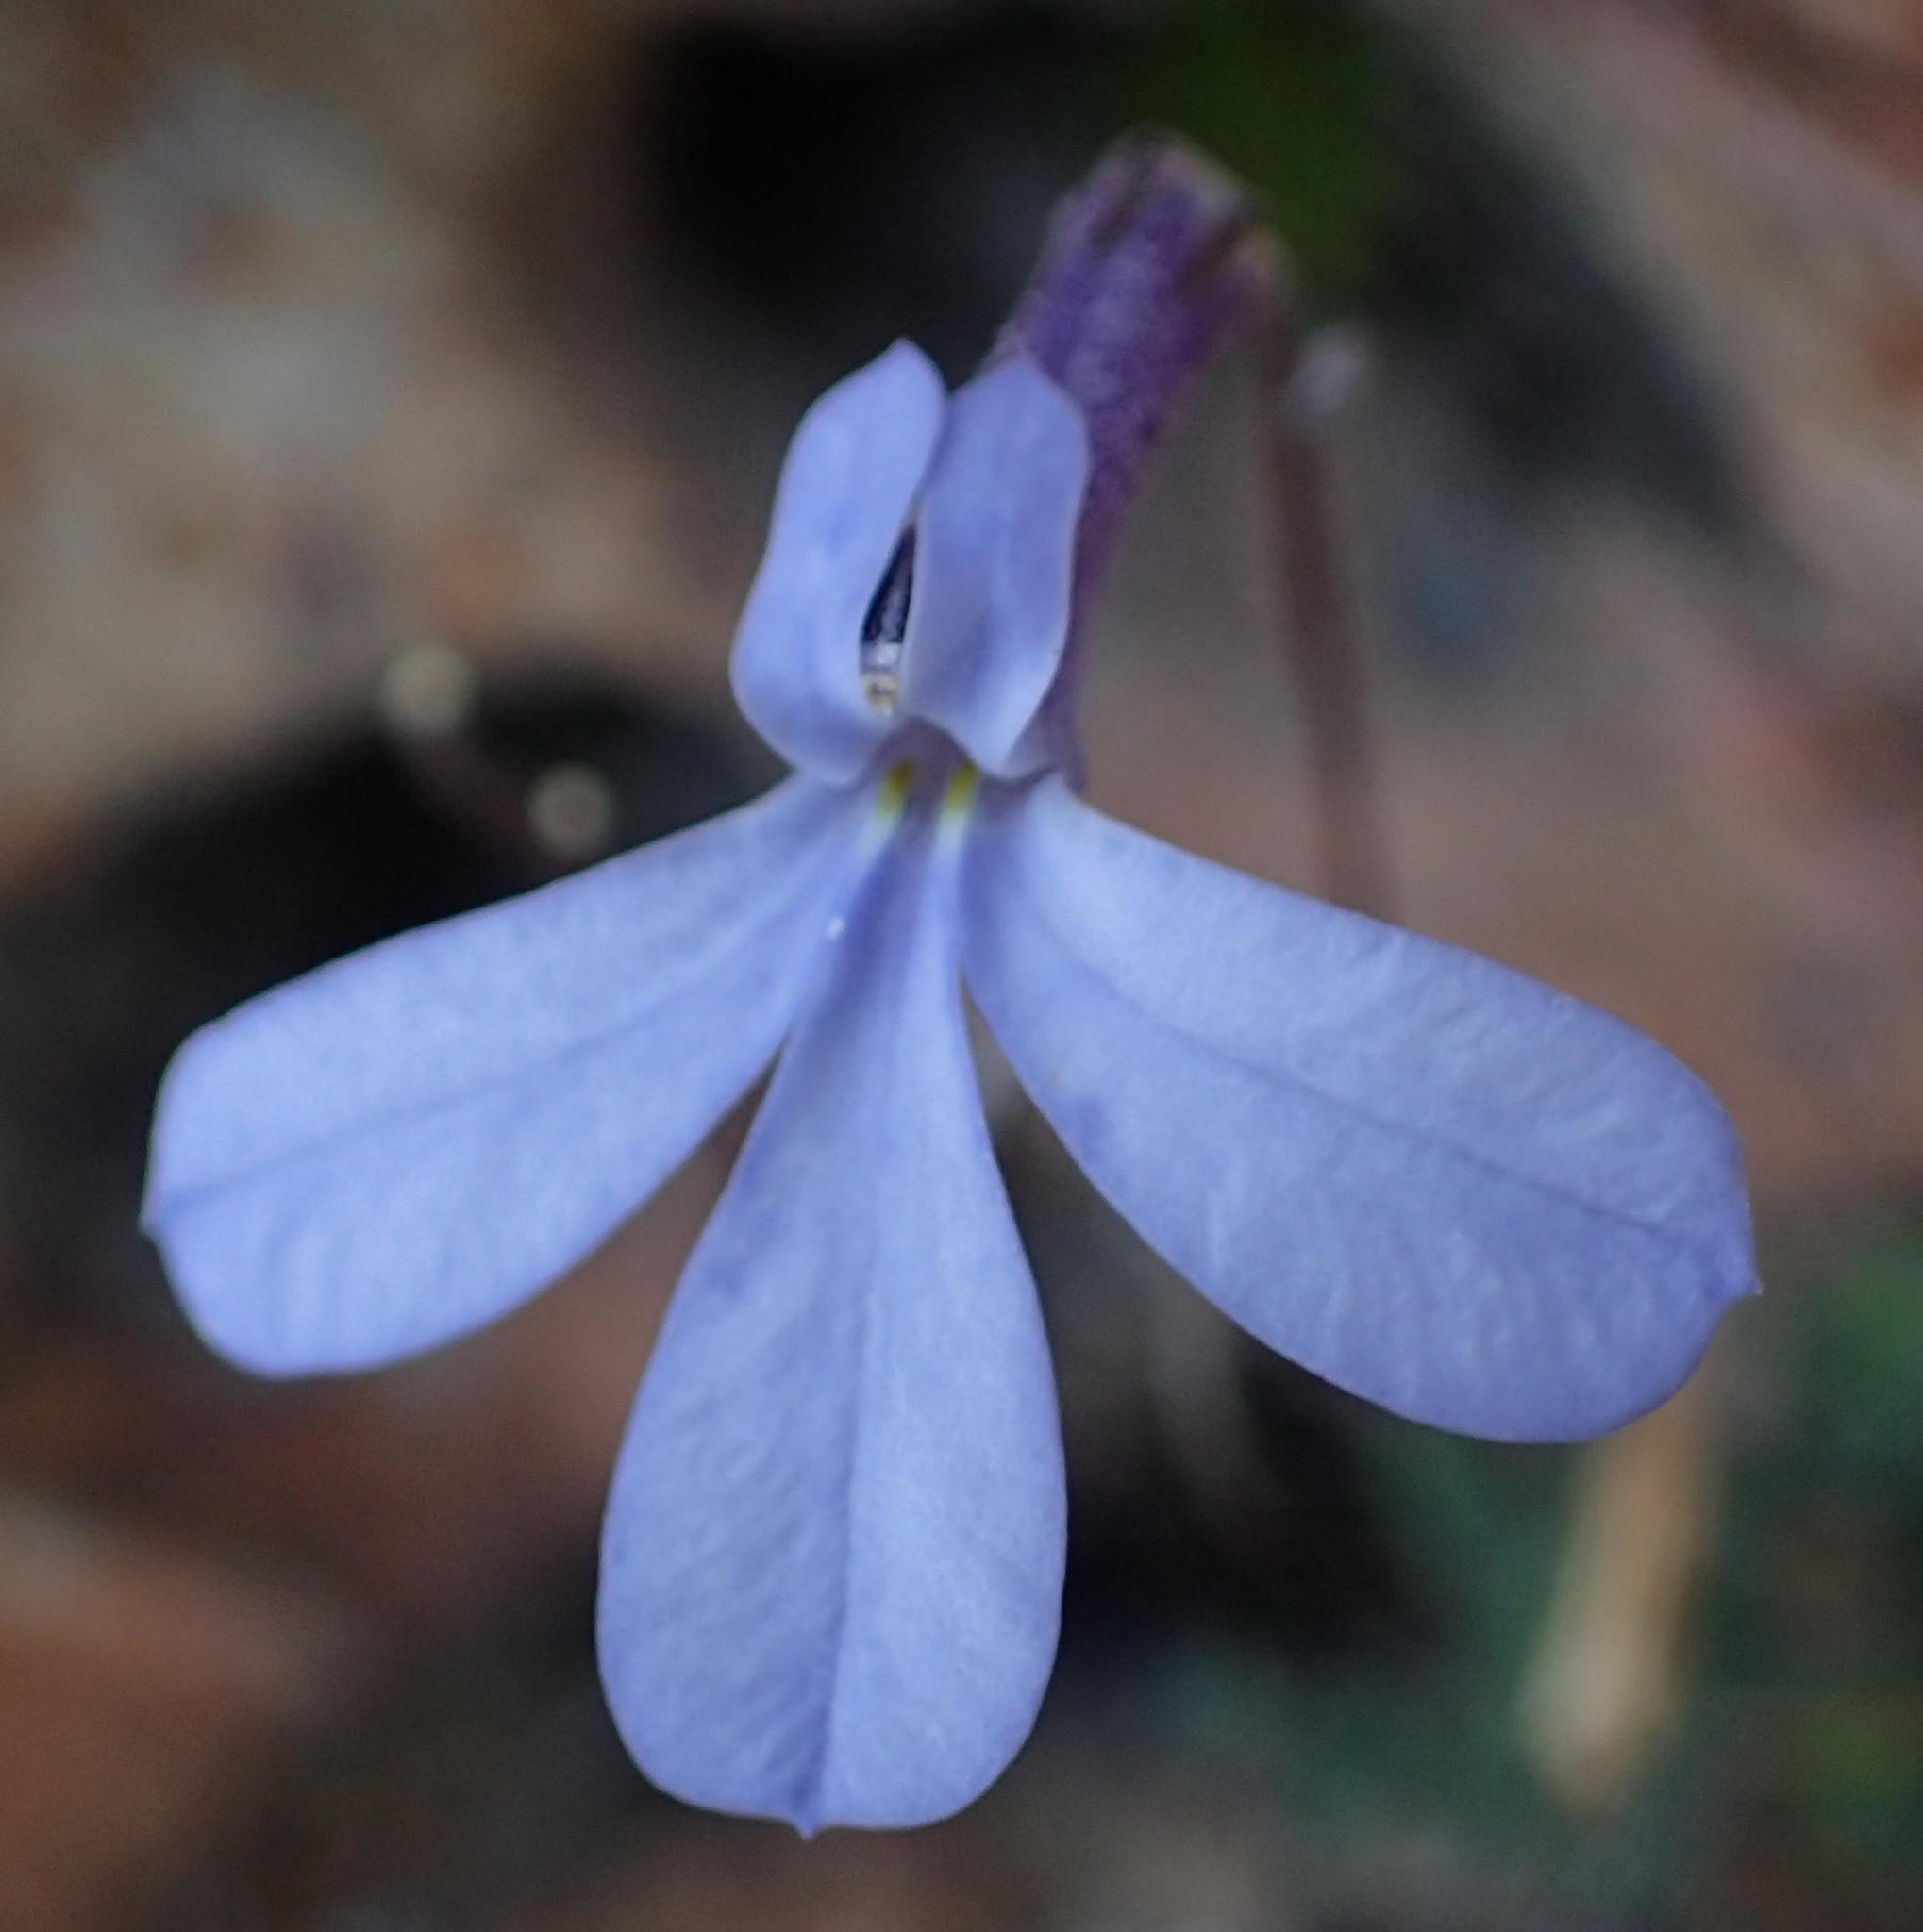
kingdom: Plantae
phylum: Tracheophyta
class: Magnoliopsida
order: Asterales
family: Campanulaceae
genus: Lobelia
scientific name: Lobelia dichroma
